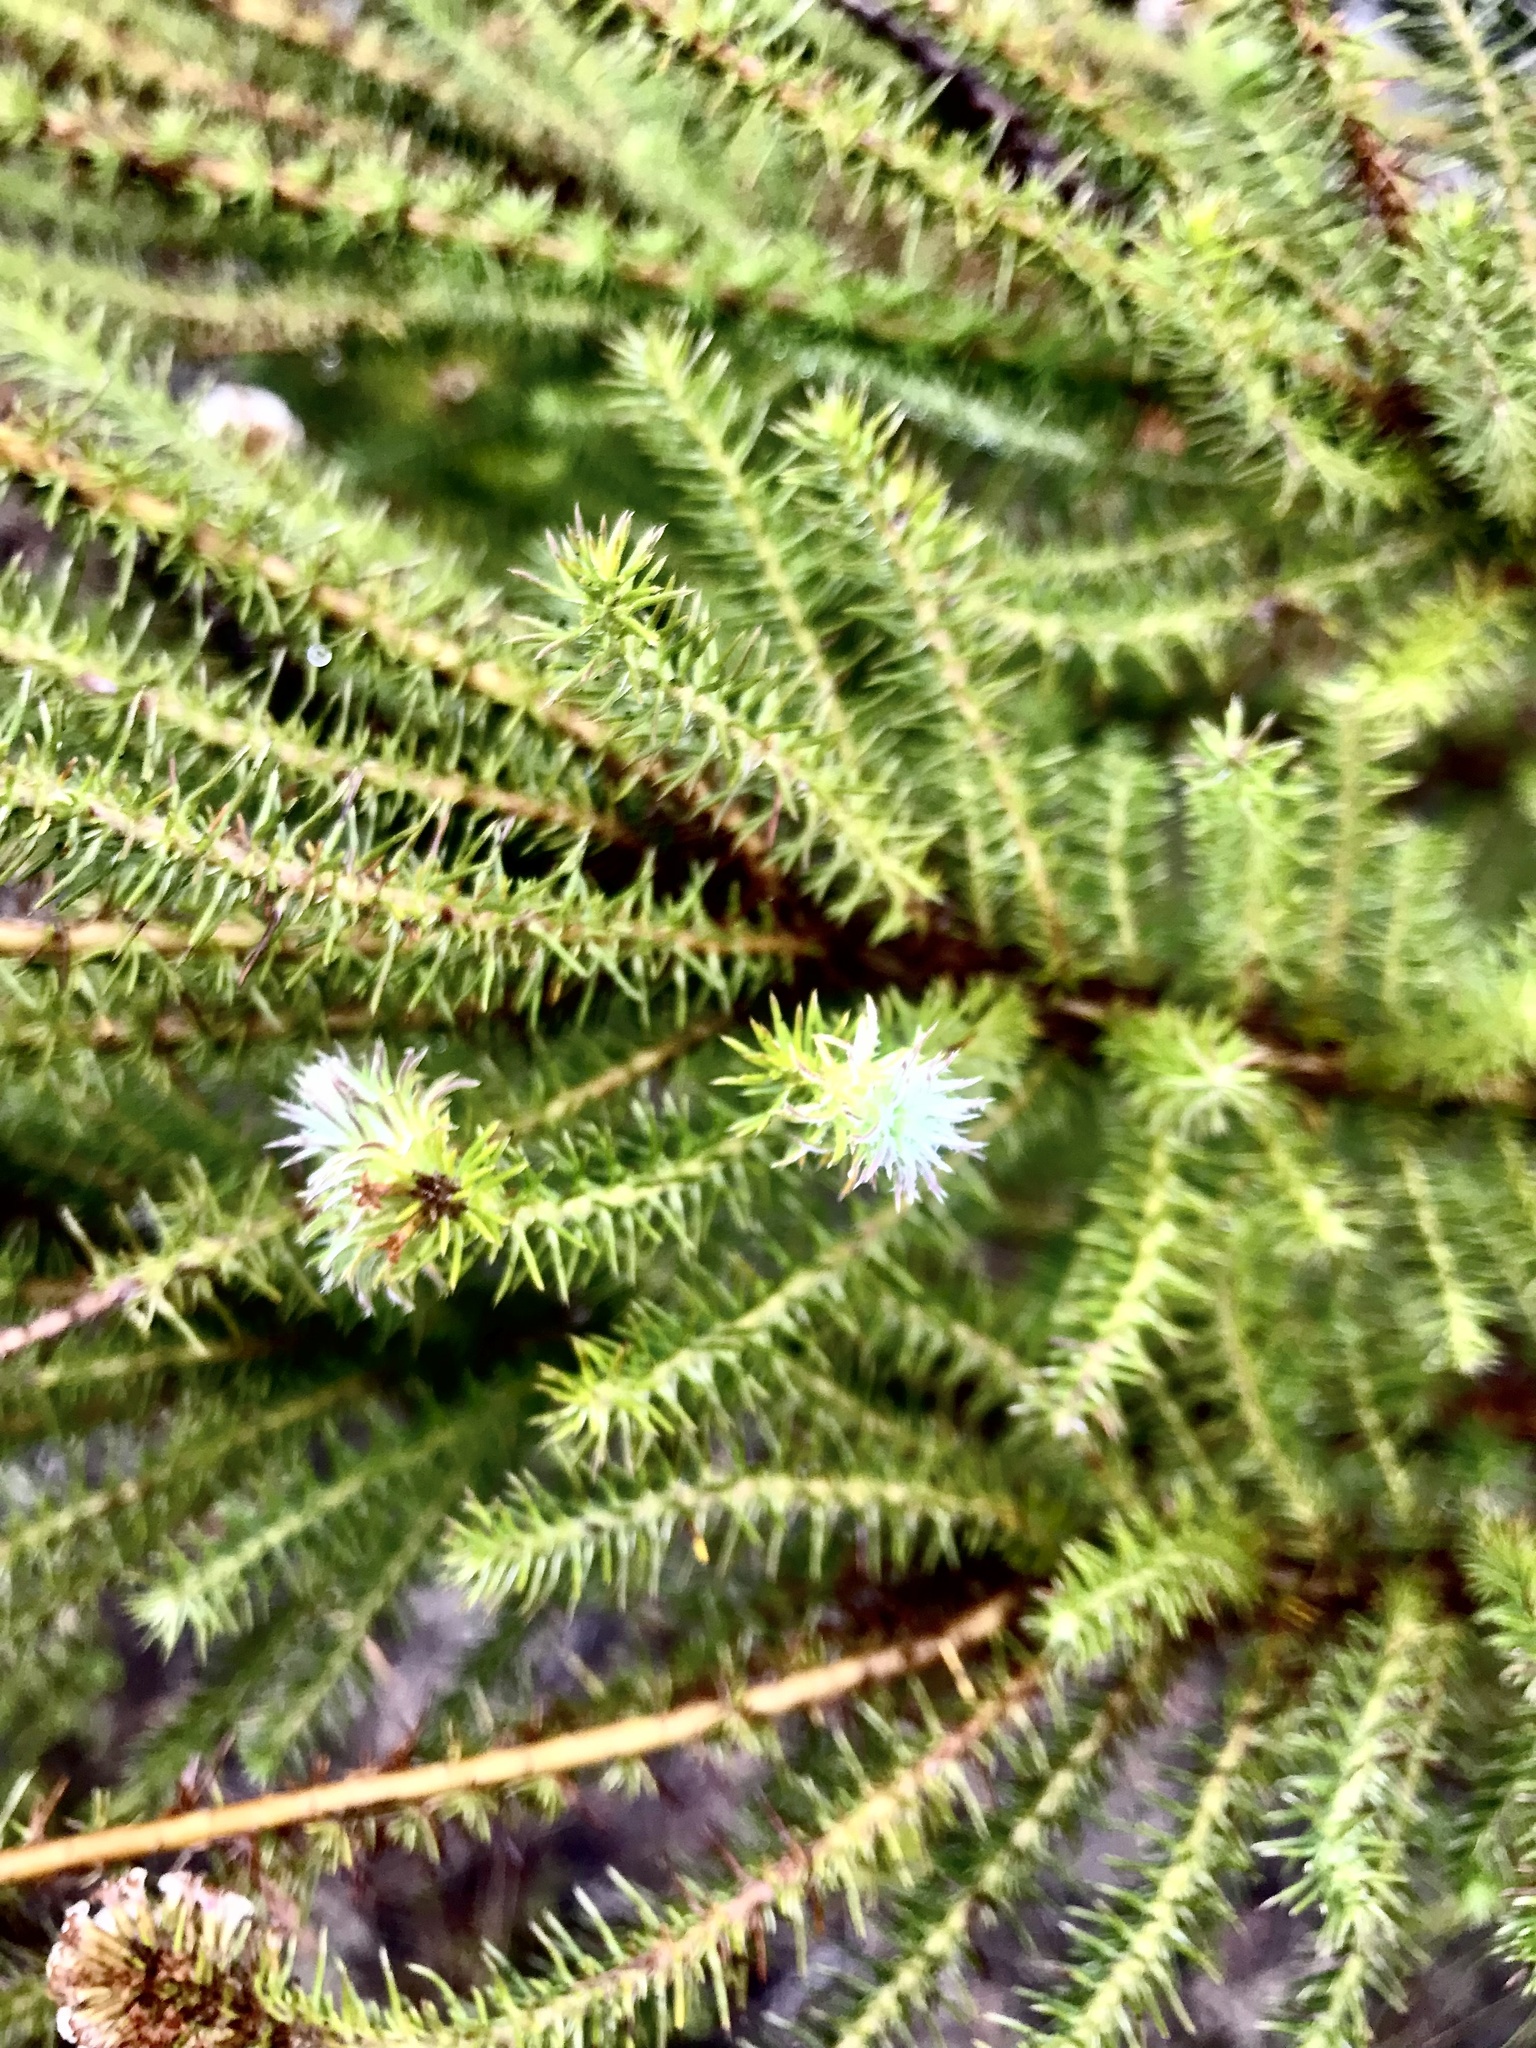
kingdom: Plantae
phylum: Tracheophyta
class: Magnoliopsida
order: Asterales
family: Asteraceae
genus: Stoebe
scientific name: Stoebe alopecuroides
